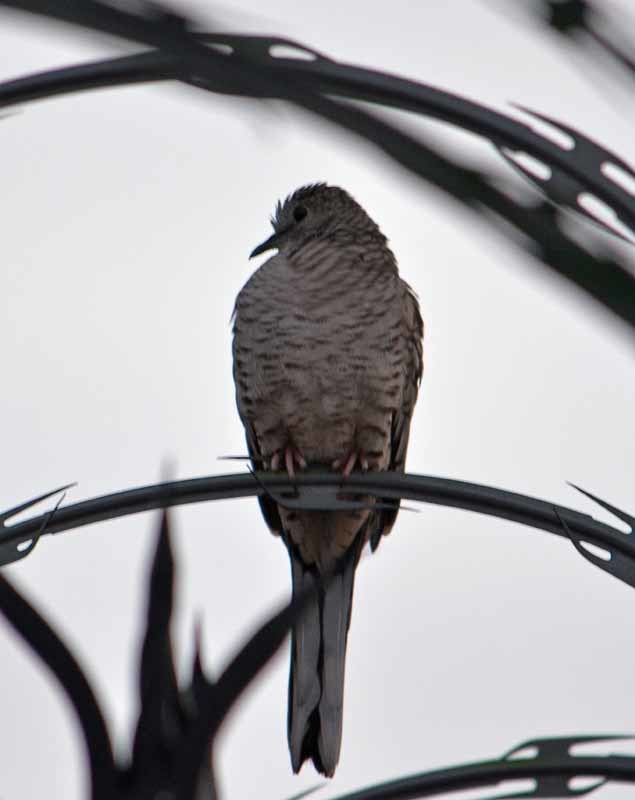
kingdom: Animalia
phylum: Chordata
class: Aves
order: Columbiformes
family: Columbidae
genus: Columbina
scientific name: Columbina inca
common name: Inca dove
